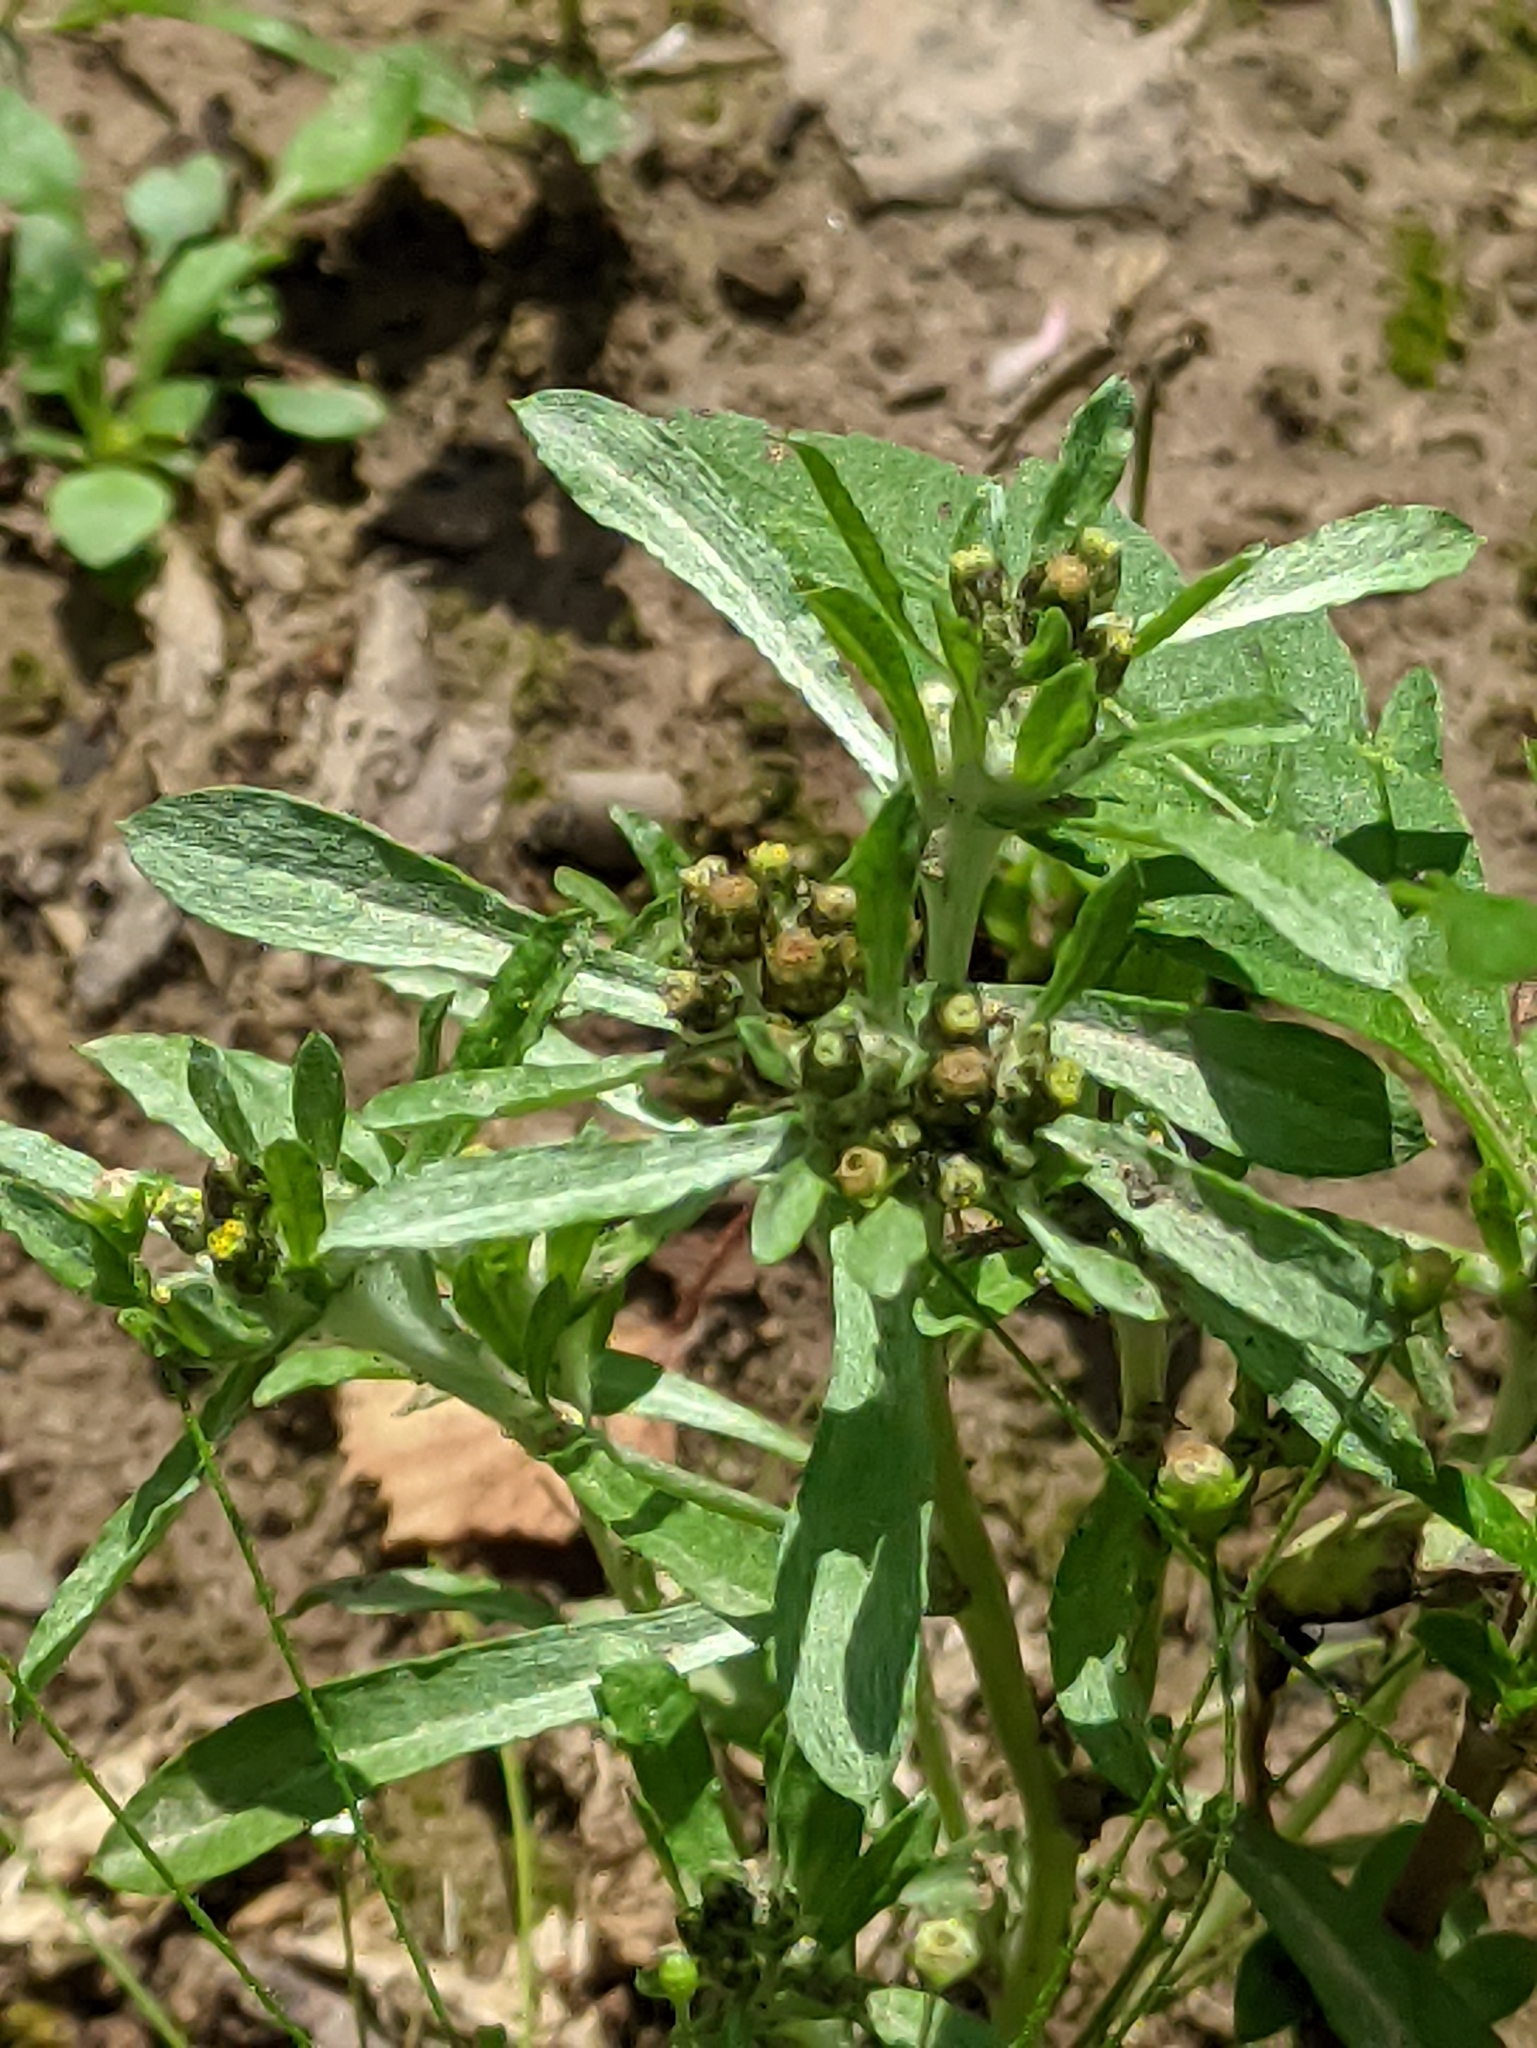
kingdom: Plantae
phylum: Tracheophyta
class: Magnoliopsida
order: Asterales
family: Asteraceae
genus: Gnaphalium
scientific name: Gnaphalium uliginosum
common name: Marsh cudweed
